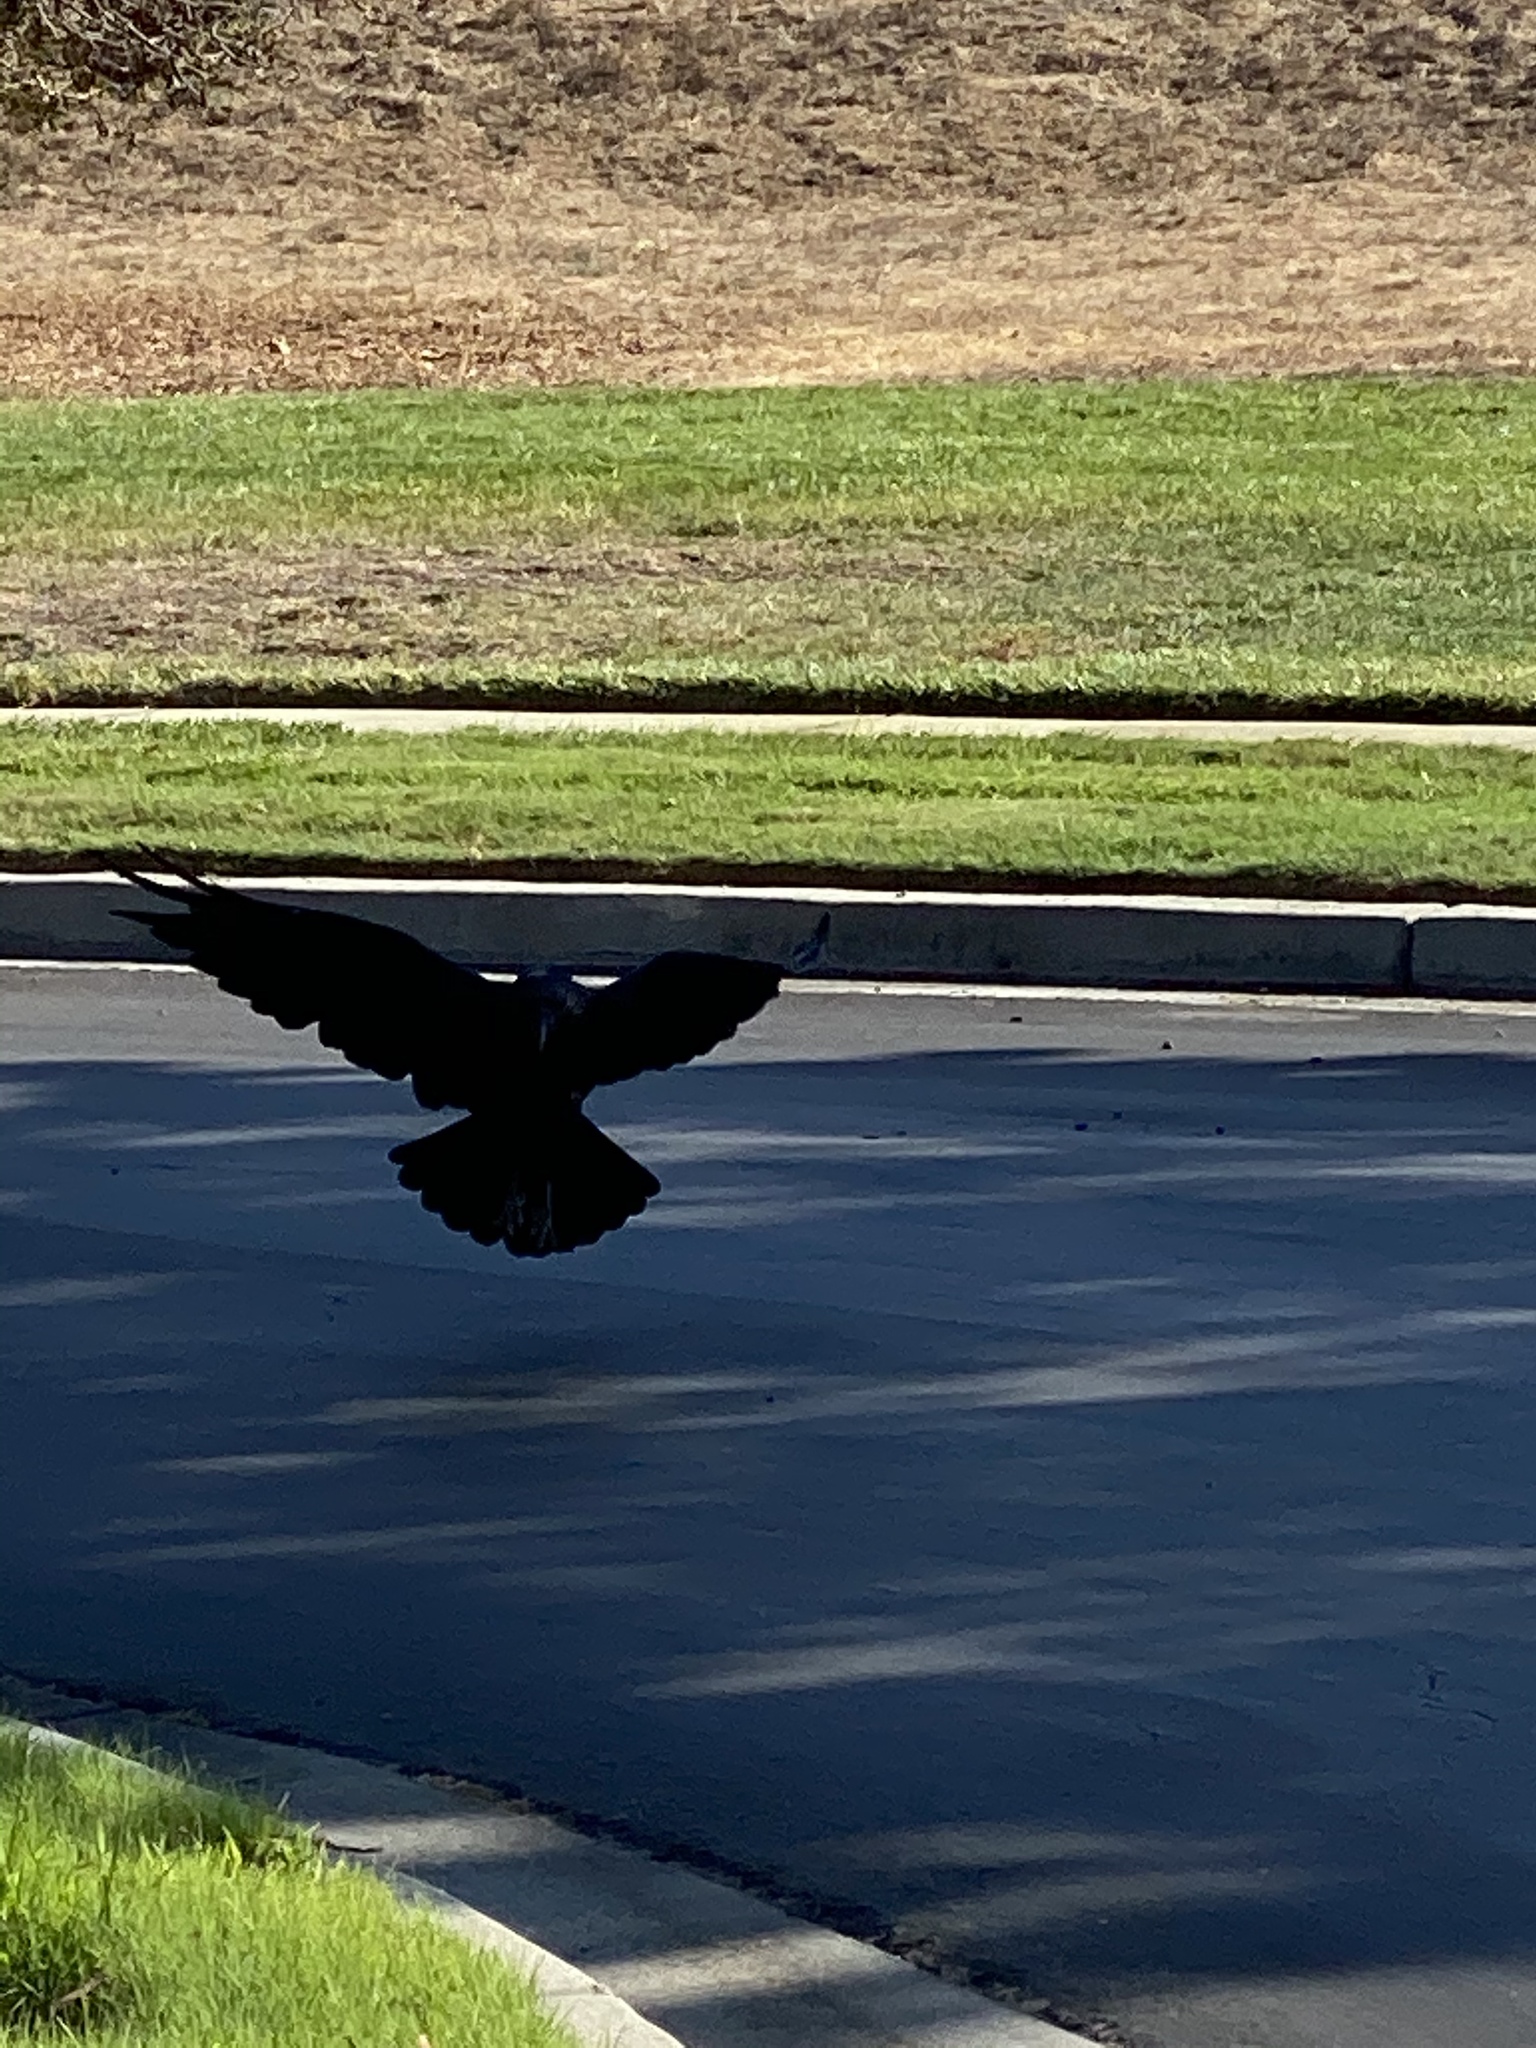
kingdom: Animalia
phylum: Chordata
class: Aves
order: Passeriformes
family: Corvidae
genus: Corvus
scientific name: Corvus corax
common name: Common raven
